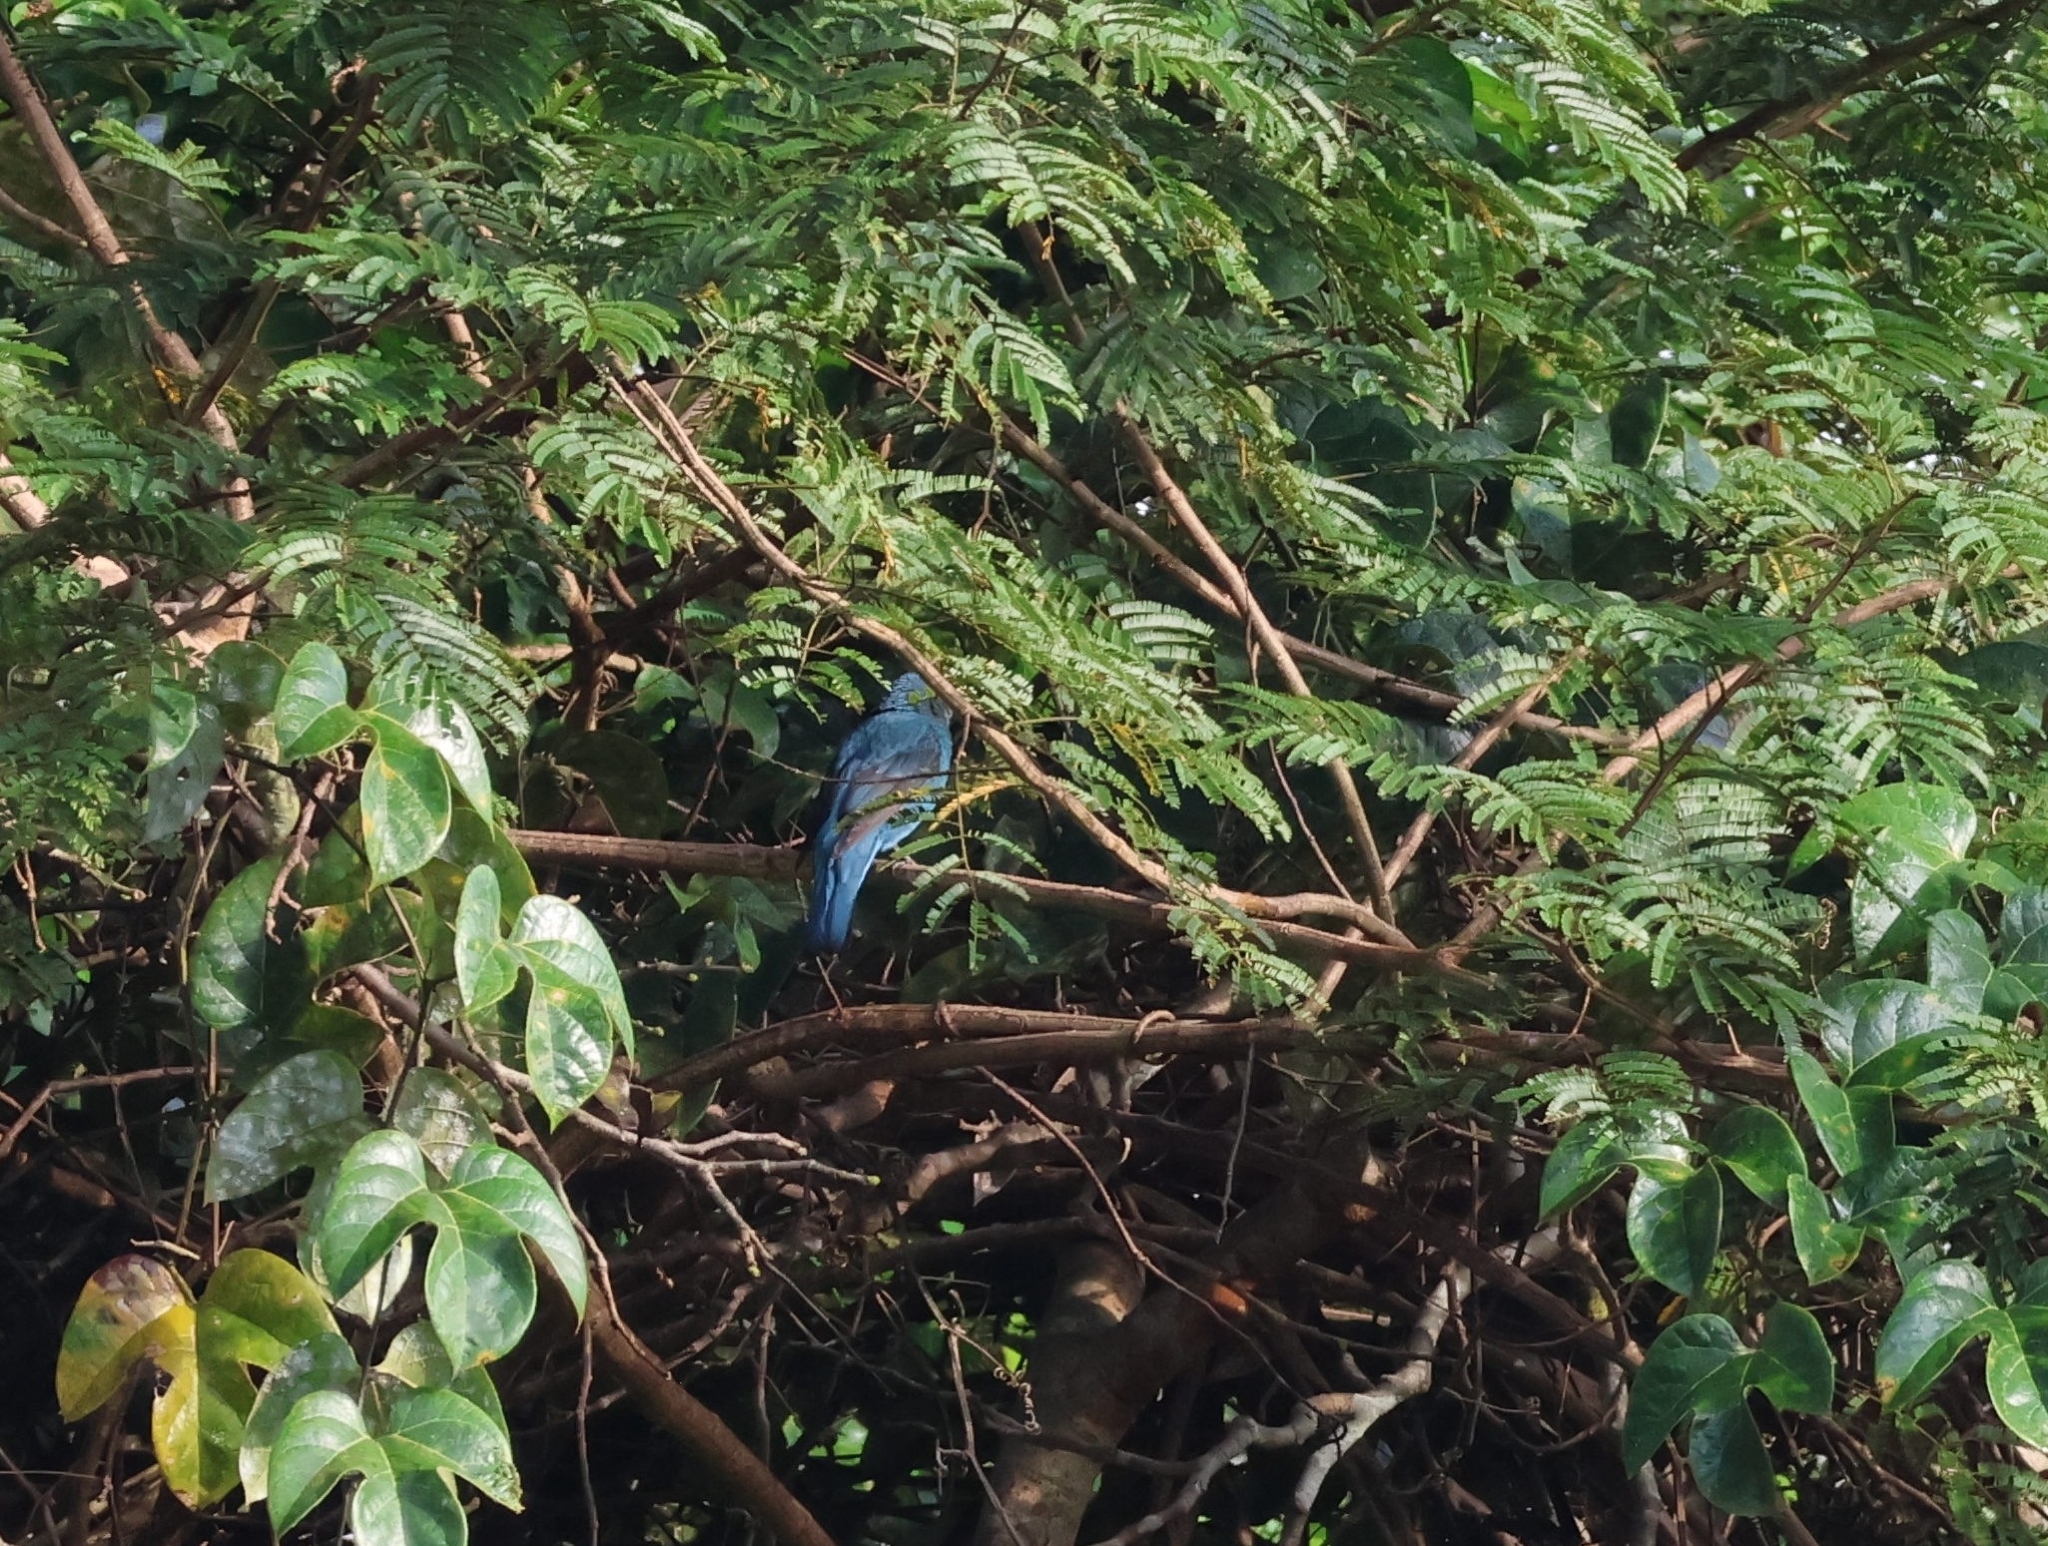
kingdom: Animalia
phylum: Chordata
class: Aves
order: Passeriformes
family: Irenidae
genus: Irena
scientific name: Irena puella
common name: Asian fairy-bluebird
